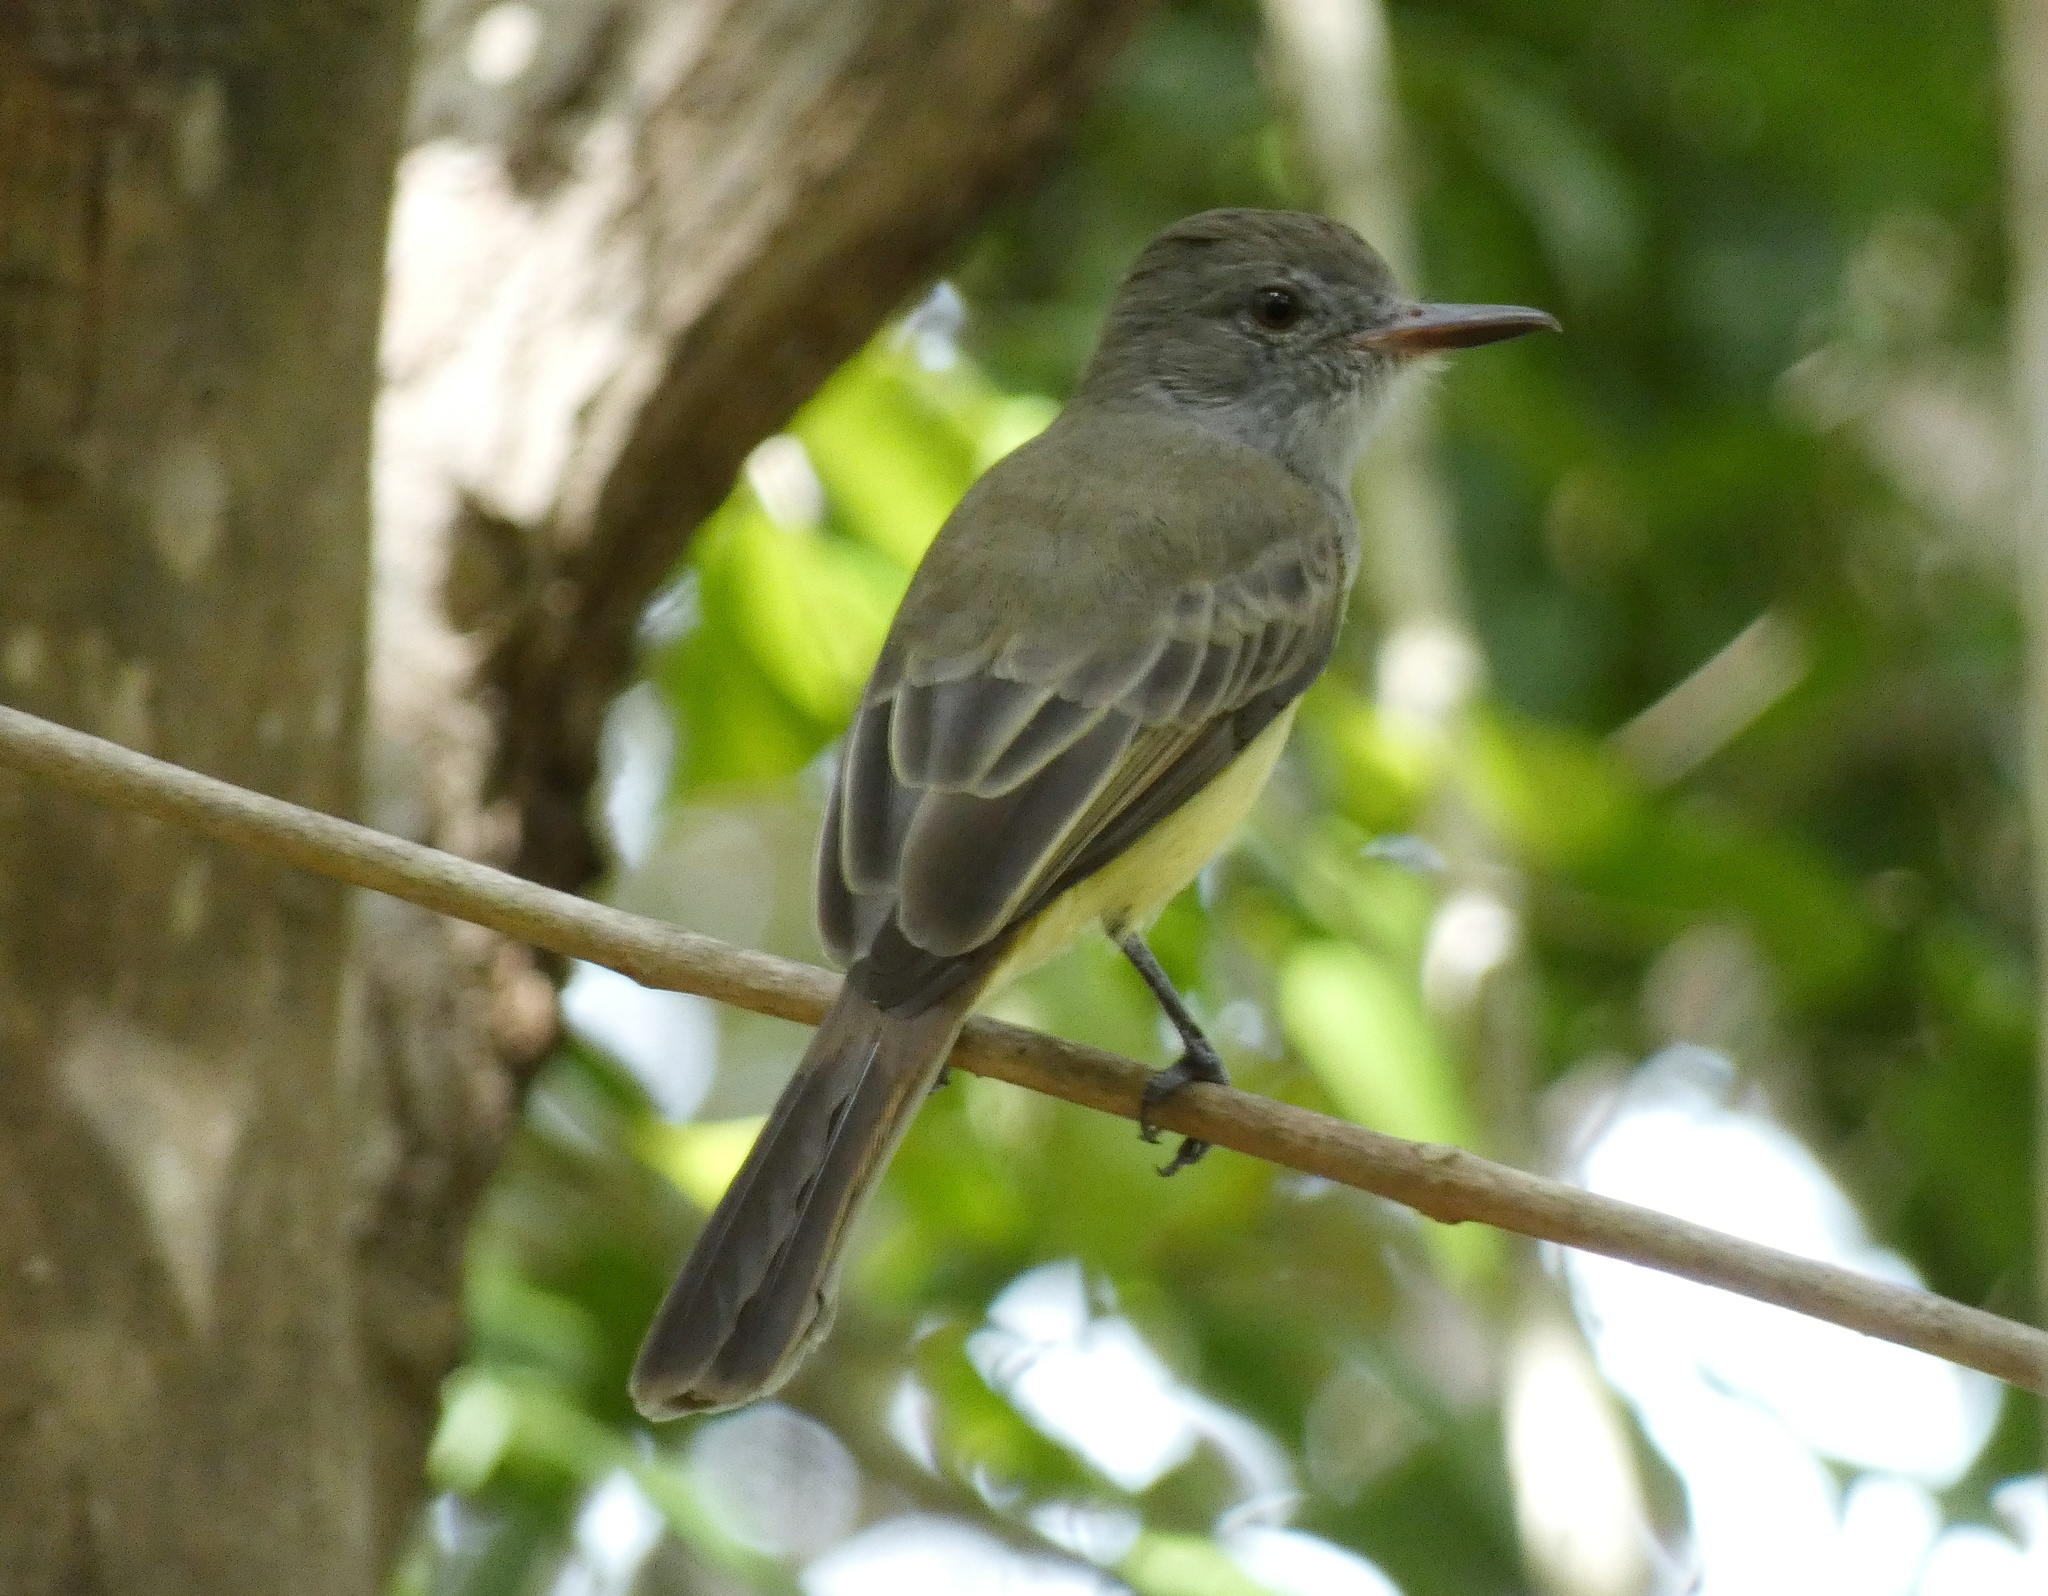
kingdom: Animalia
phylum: Chordata
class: Aves
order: Passeriformes
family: Tyrannidae
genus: Myiarchus
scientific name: Myiarchus panamensis
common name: Panama flycatcher
